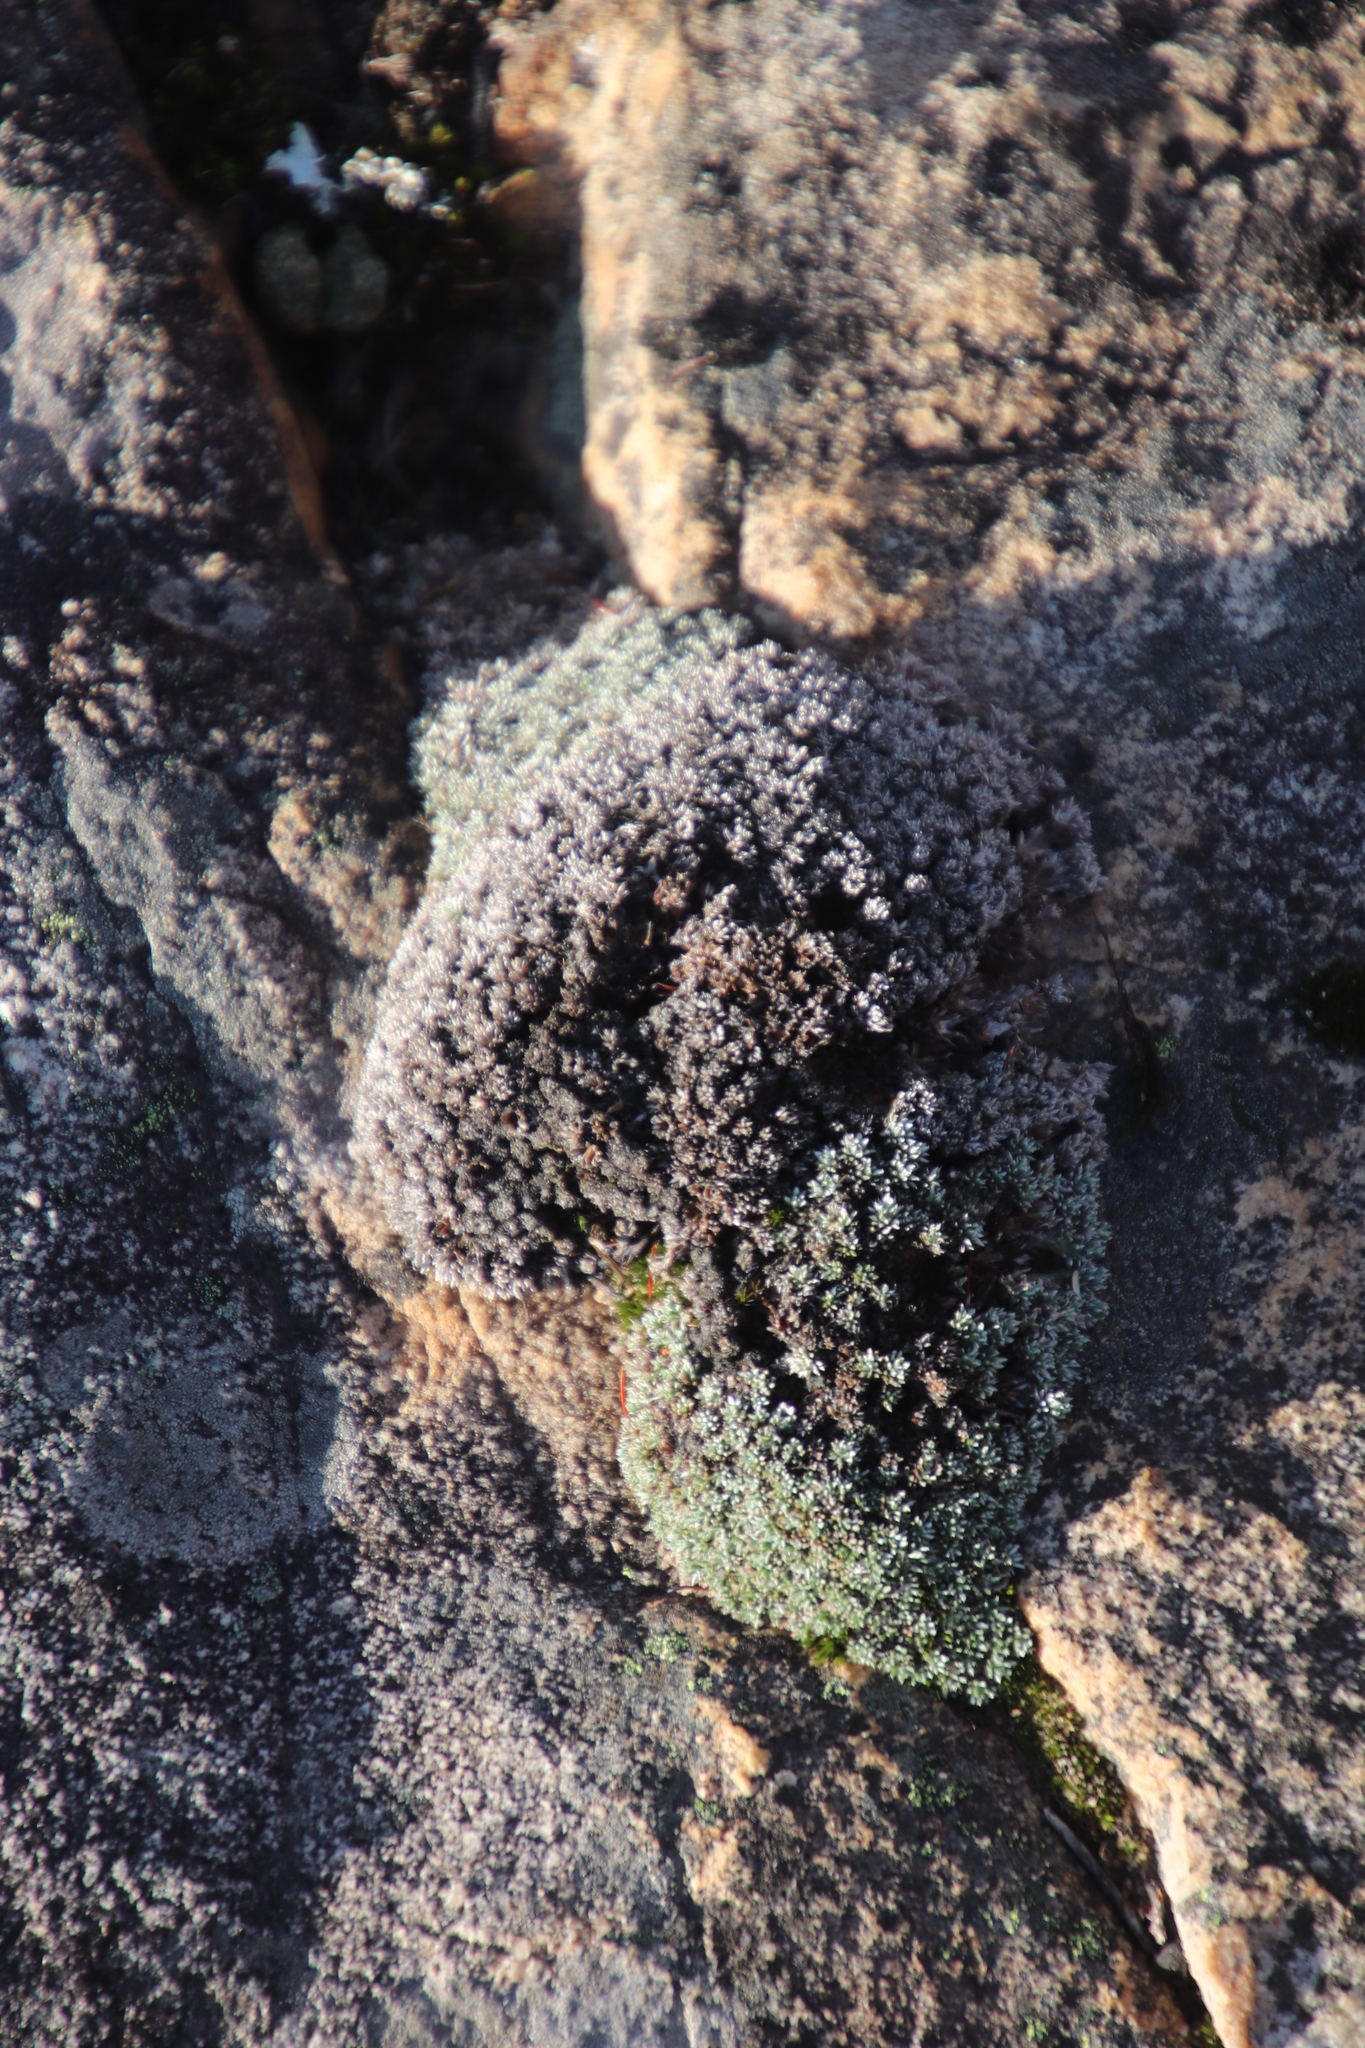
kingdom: Plantae
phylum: Tracheophyta
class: Magnoliopsida
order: Asterales
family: Asteraceae
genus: Muscosomorphe
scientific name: Muscosomorphe aretioides
